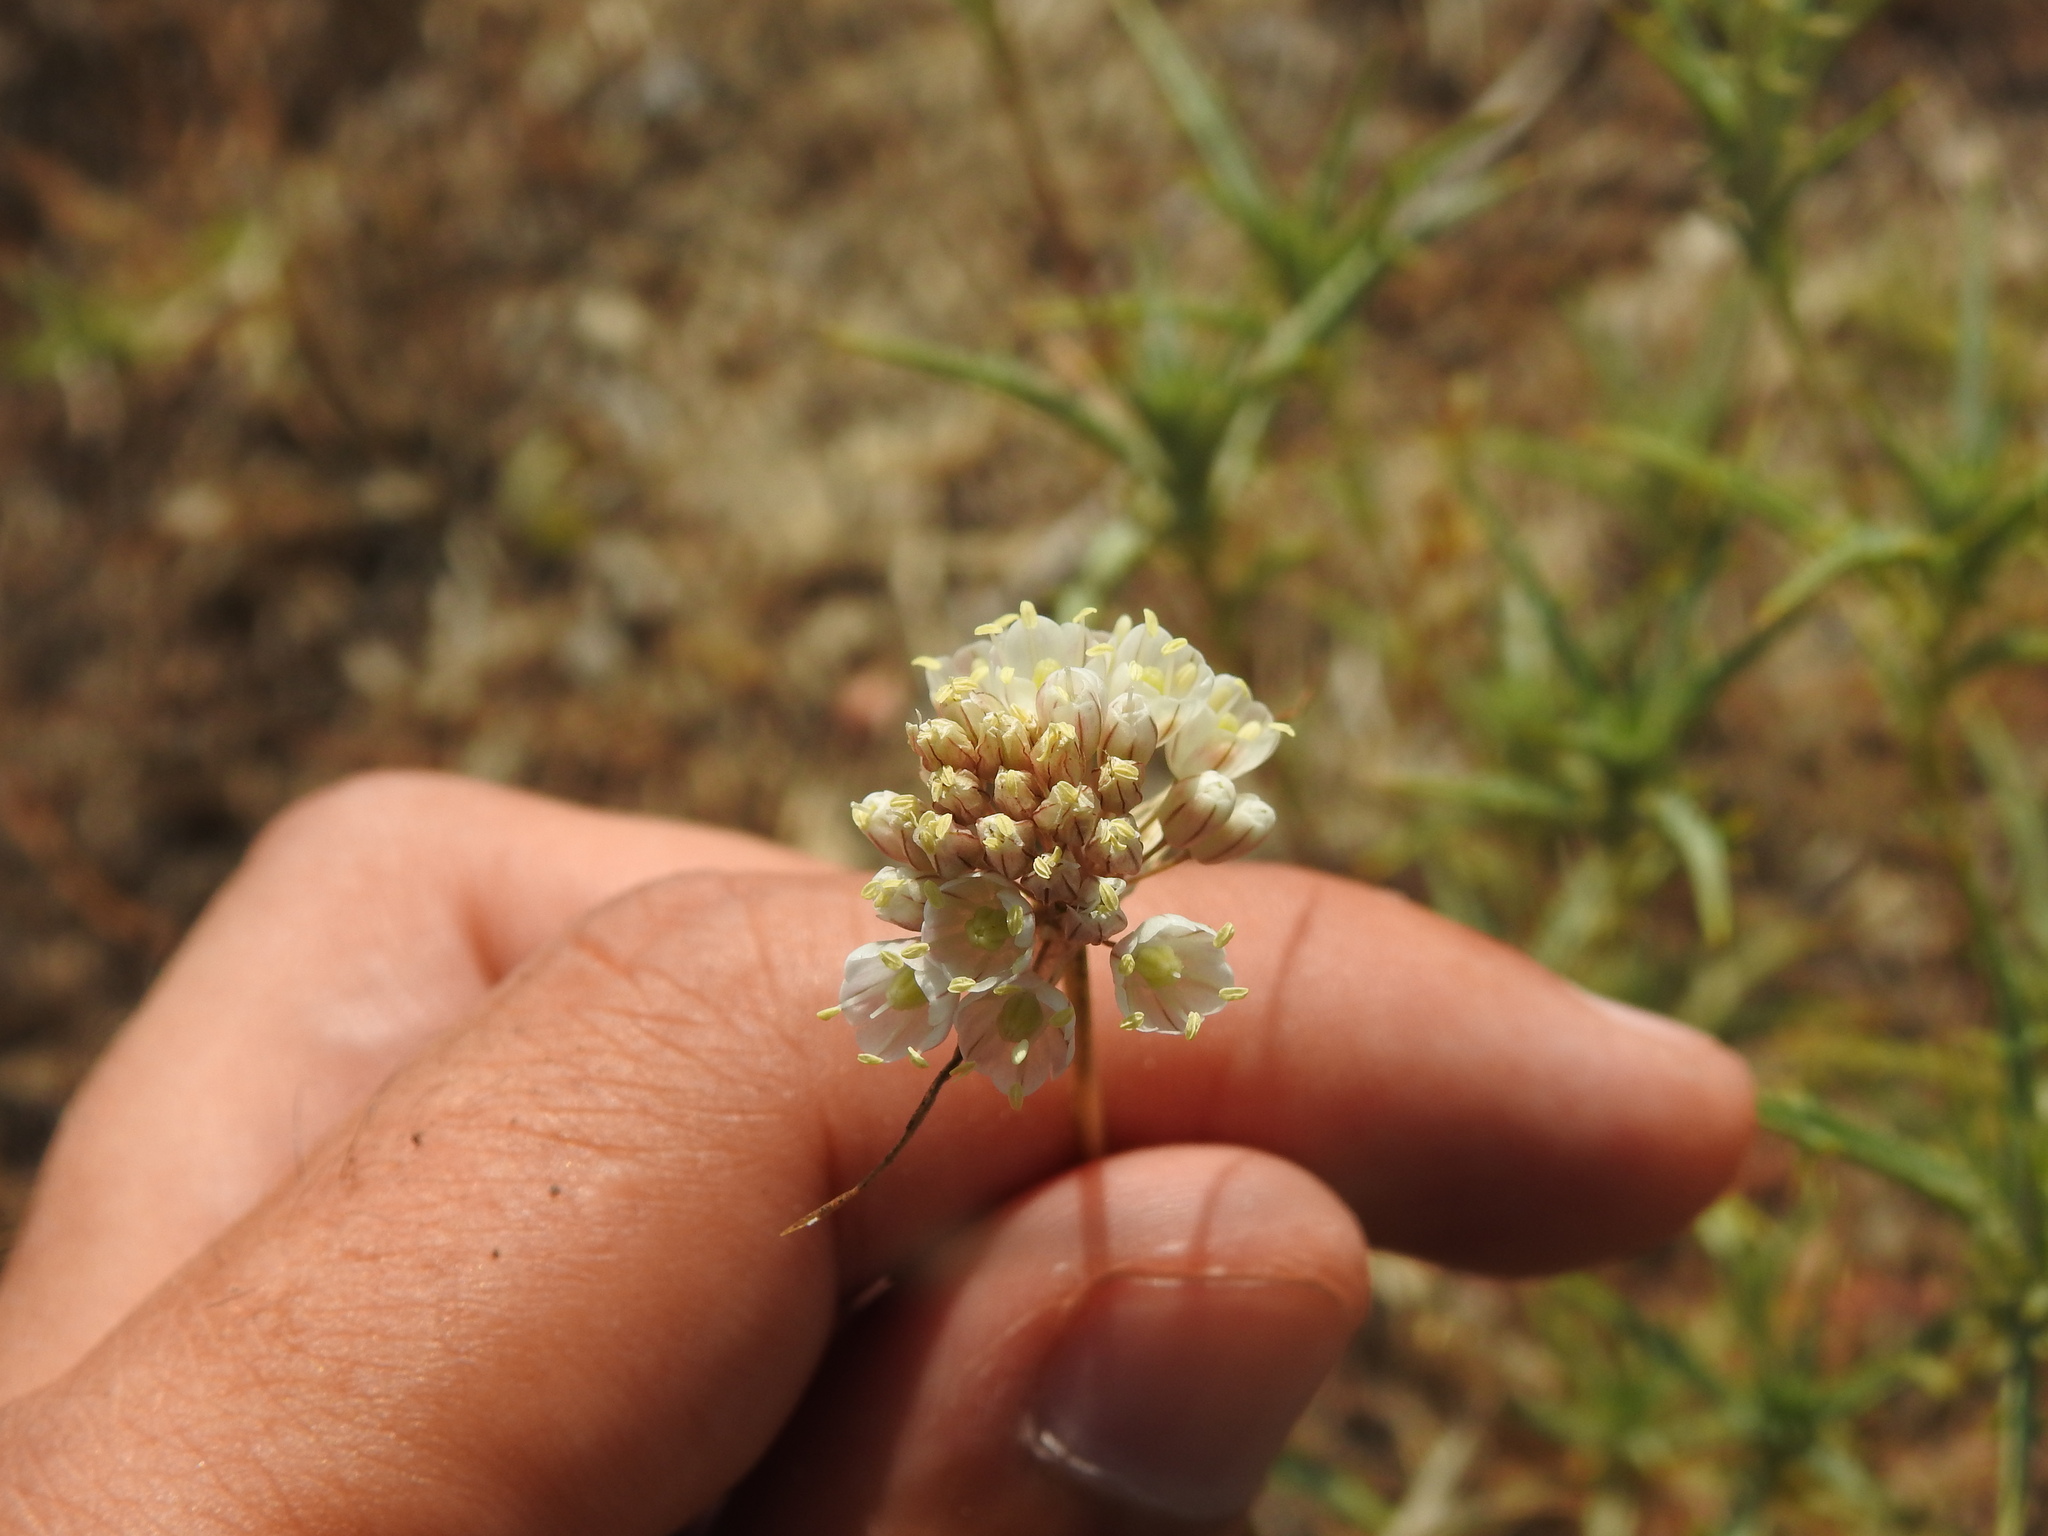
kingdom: Plantae
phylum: Tracheophyta
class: Liliopsida
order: Asparagales
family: Amaryllidaceae
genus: Allium
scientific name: Allium pallens
